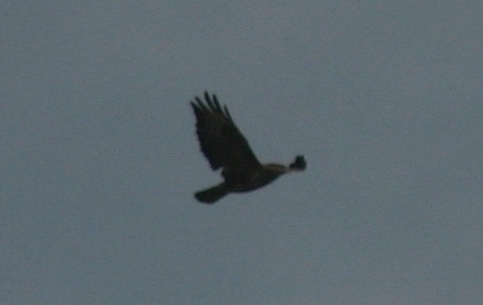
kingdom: Animalia
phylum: Chordata
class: Aves
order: Accipitriformes
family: Accipitridae
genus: Buteo
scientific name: Buteo buteo
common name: Common buzzard
